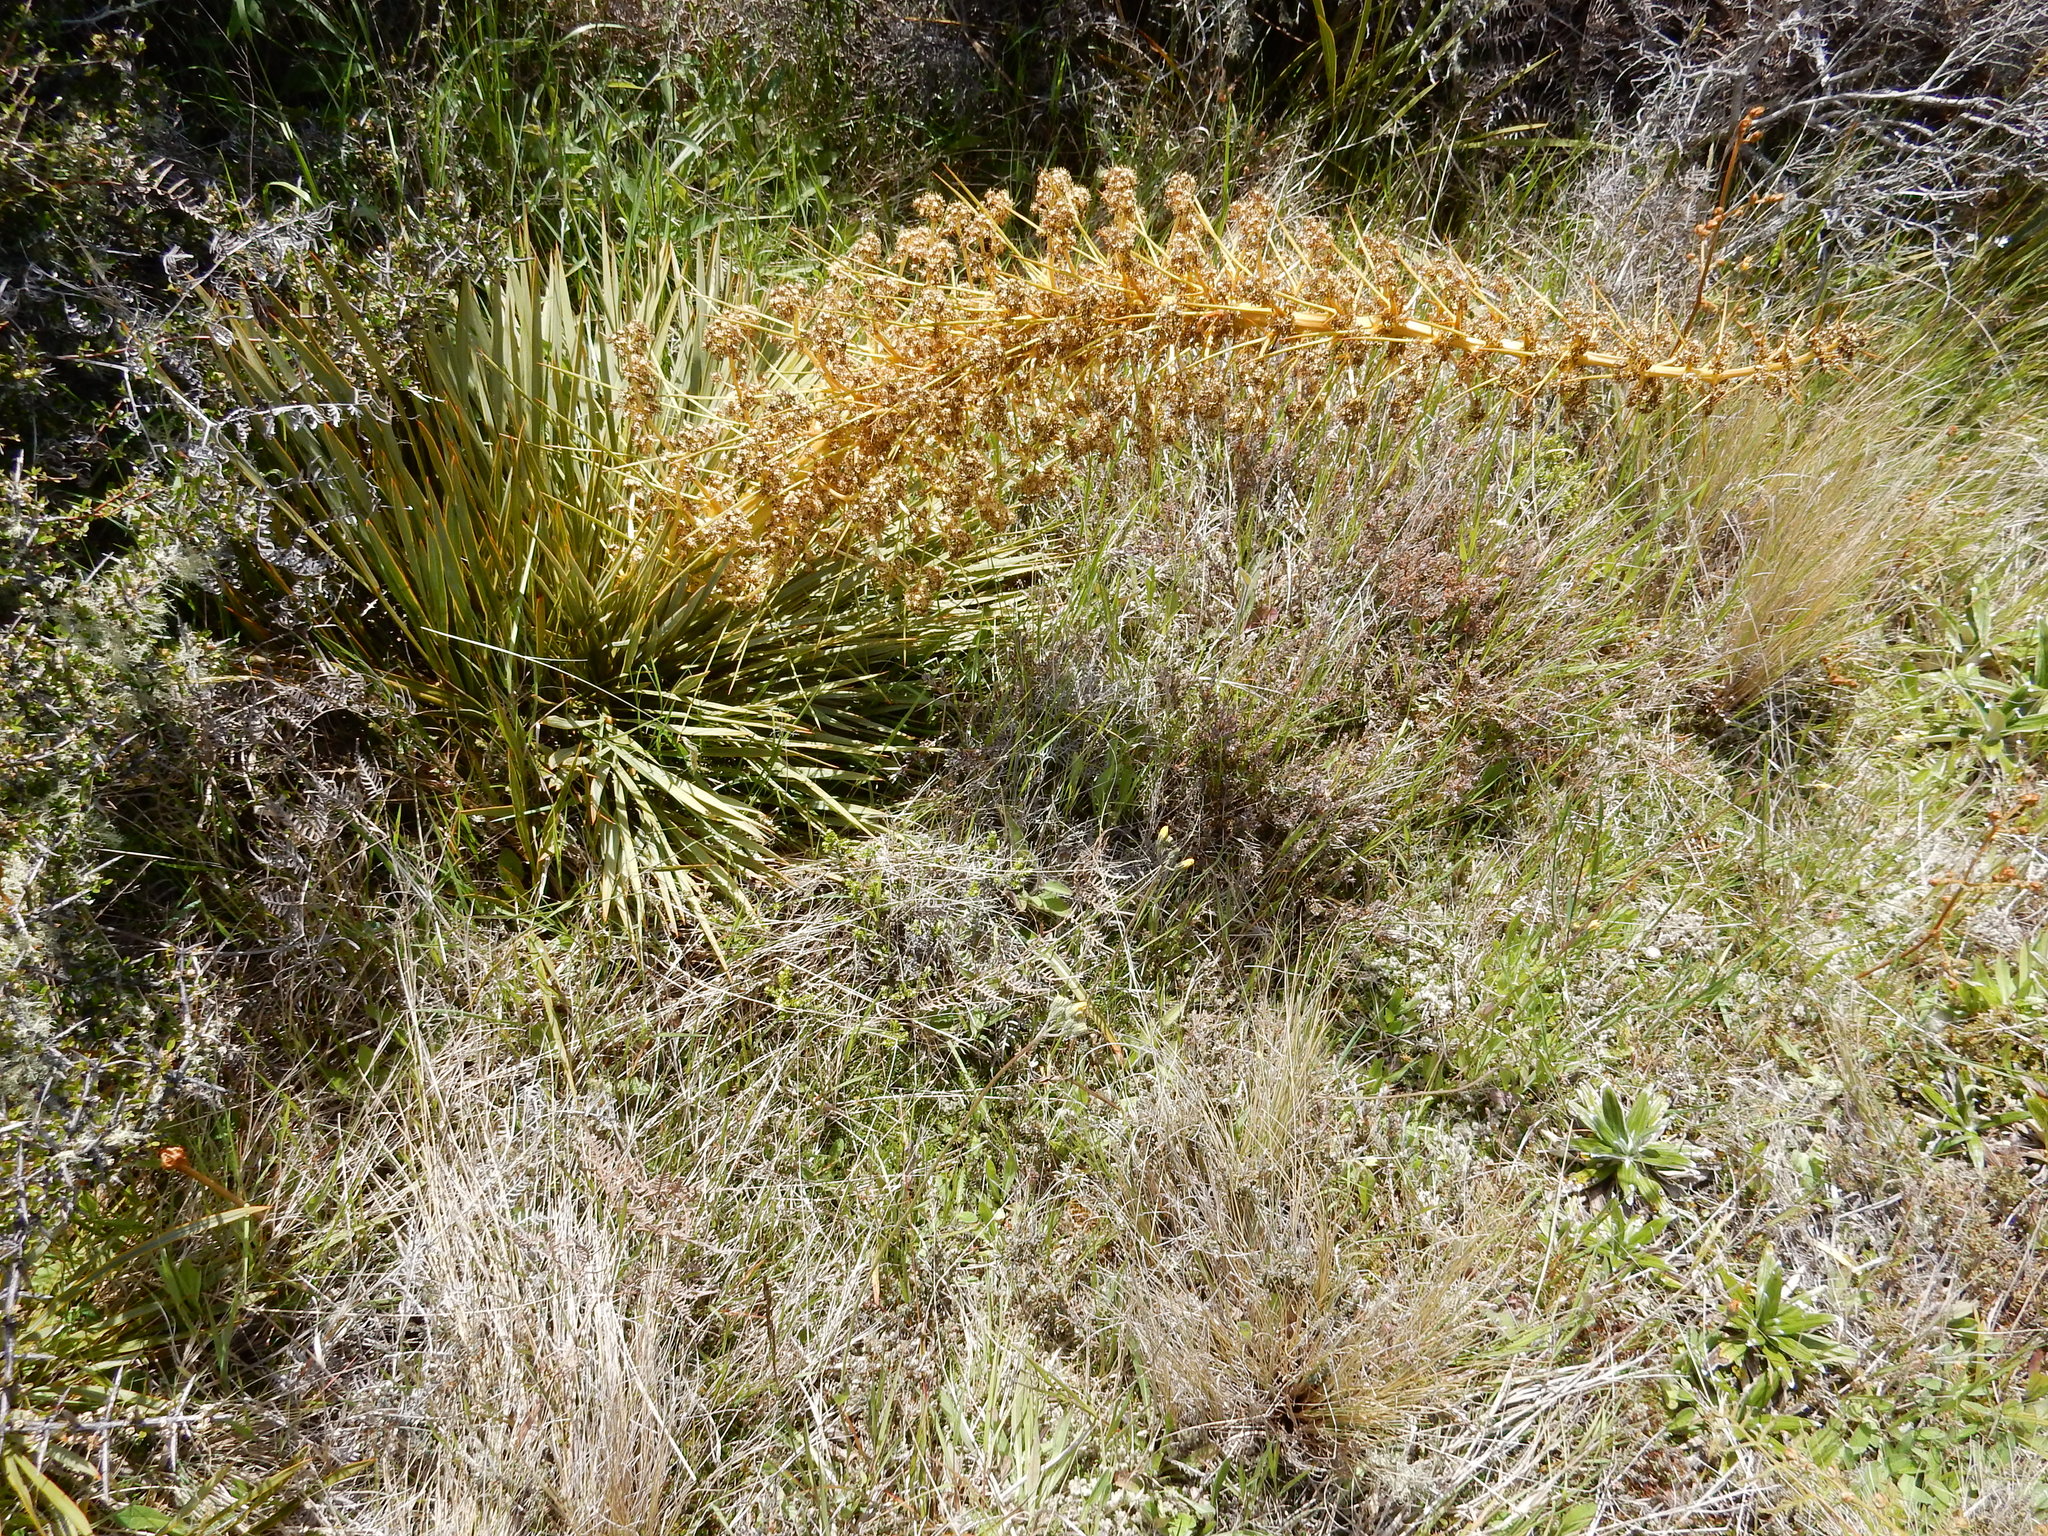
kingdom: Plantae
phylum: Tracheophyta
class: Magnoliopsida
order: Apiales
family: Apiaceae
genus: Aciphylla
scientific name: Aciphylla aurea
